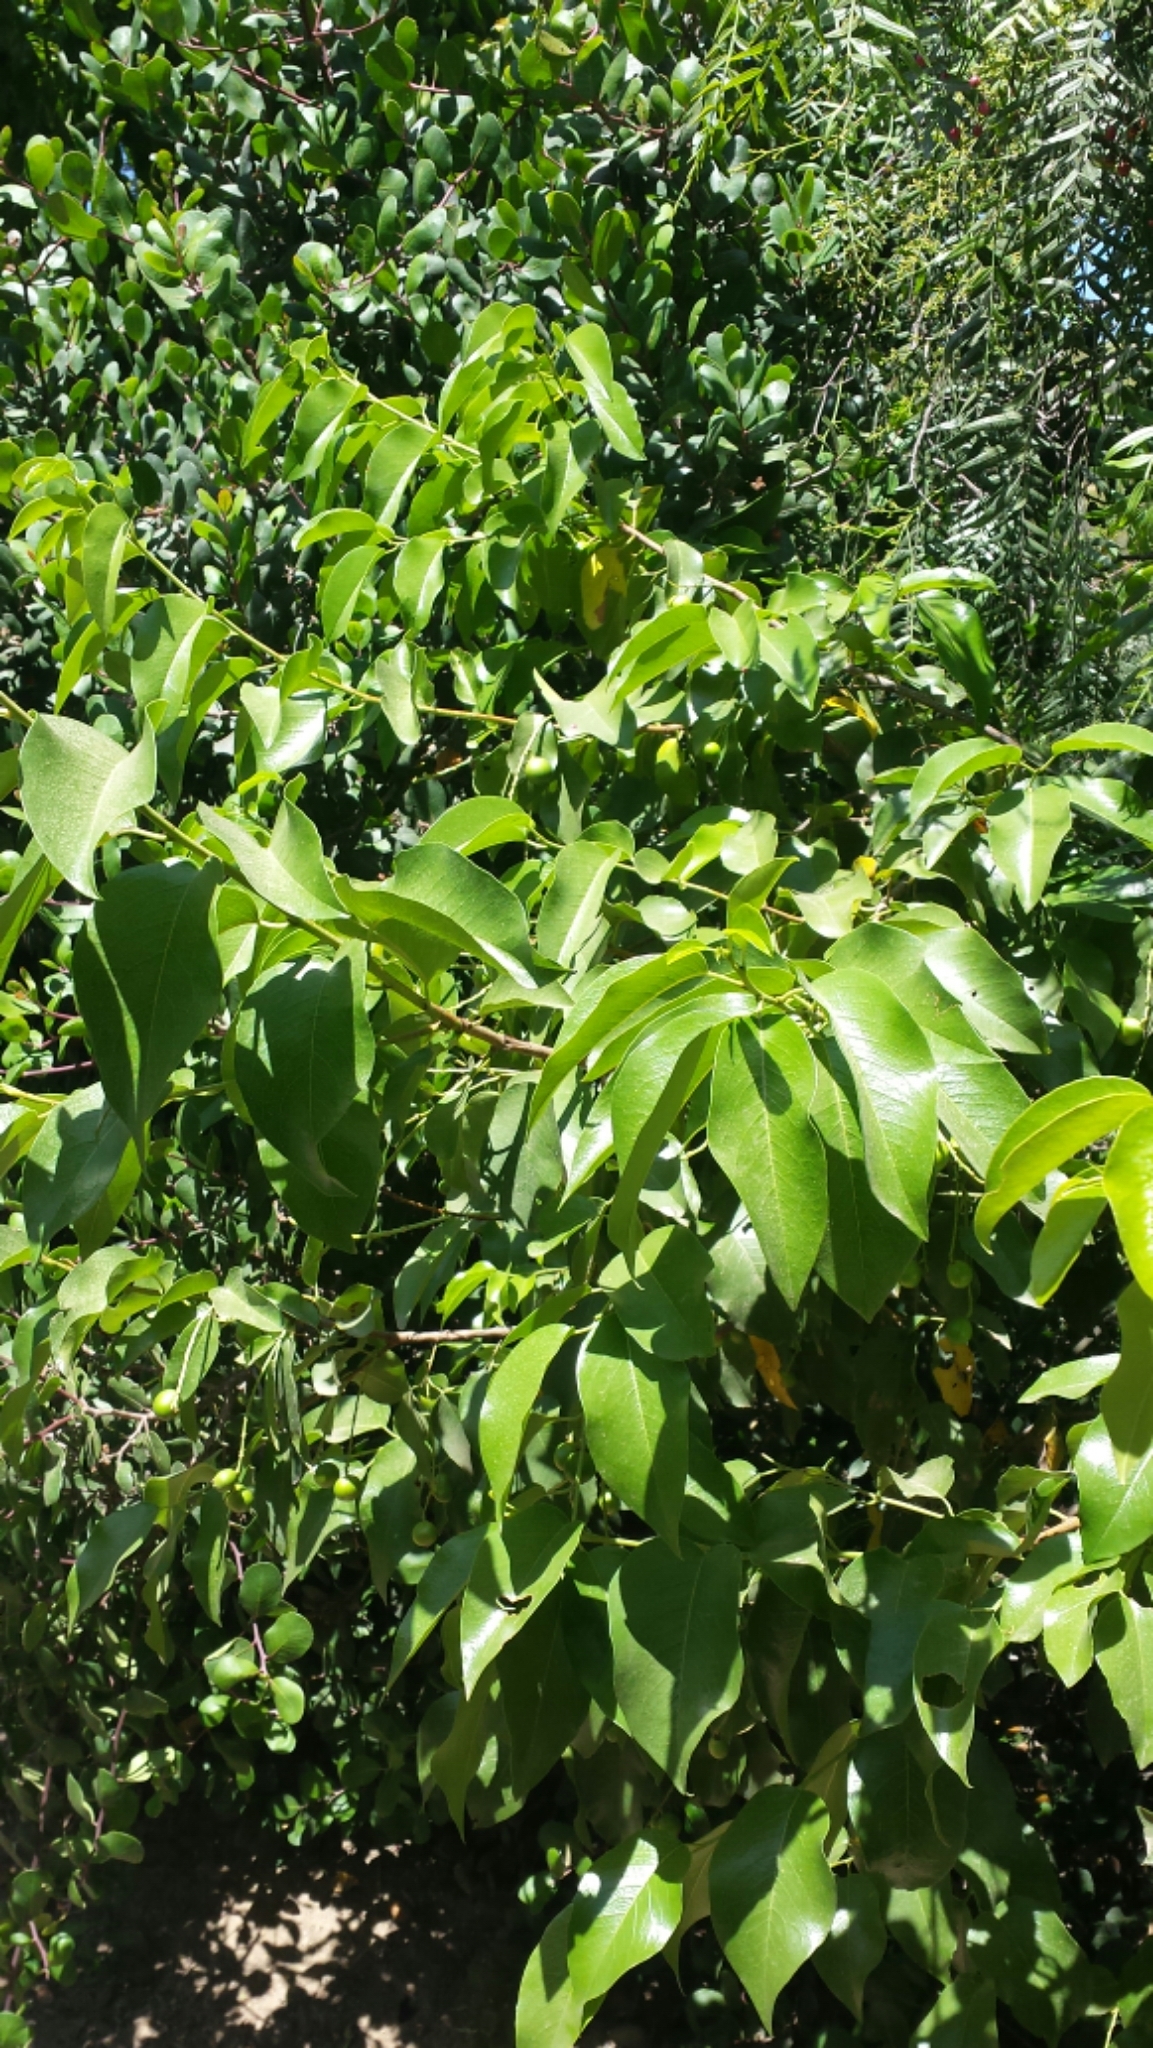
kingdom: Plantae
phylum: Tracheophyta
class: Magnoliopsida
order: Rosales
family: Rosaceae
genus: Prunus
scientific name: Prunus ilicifolia
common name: Hollyleaf cherry
